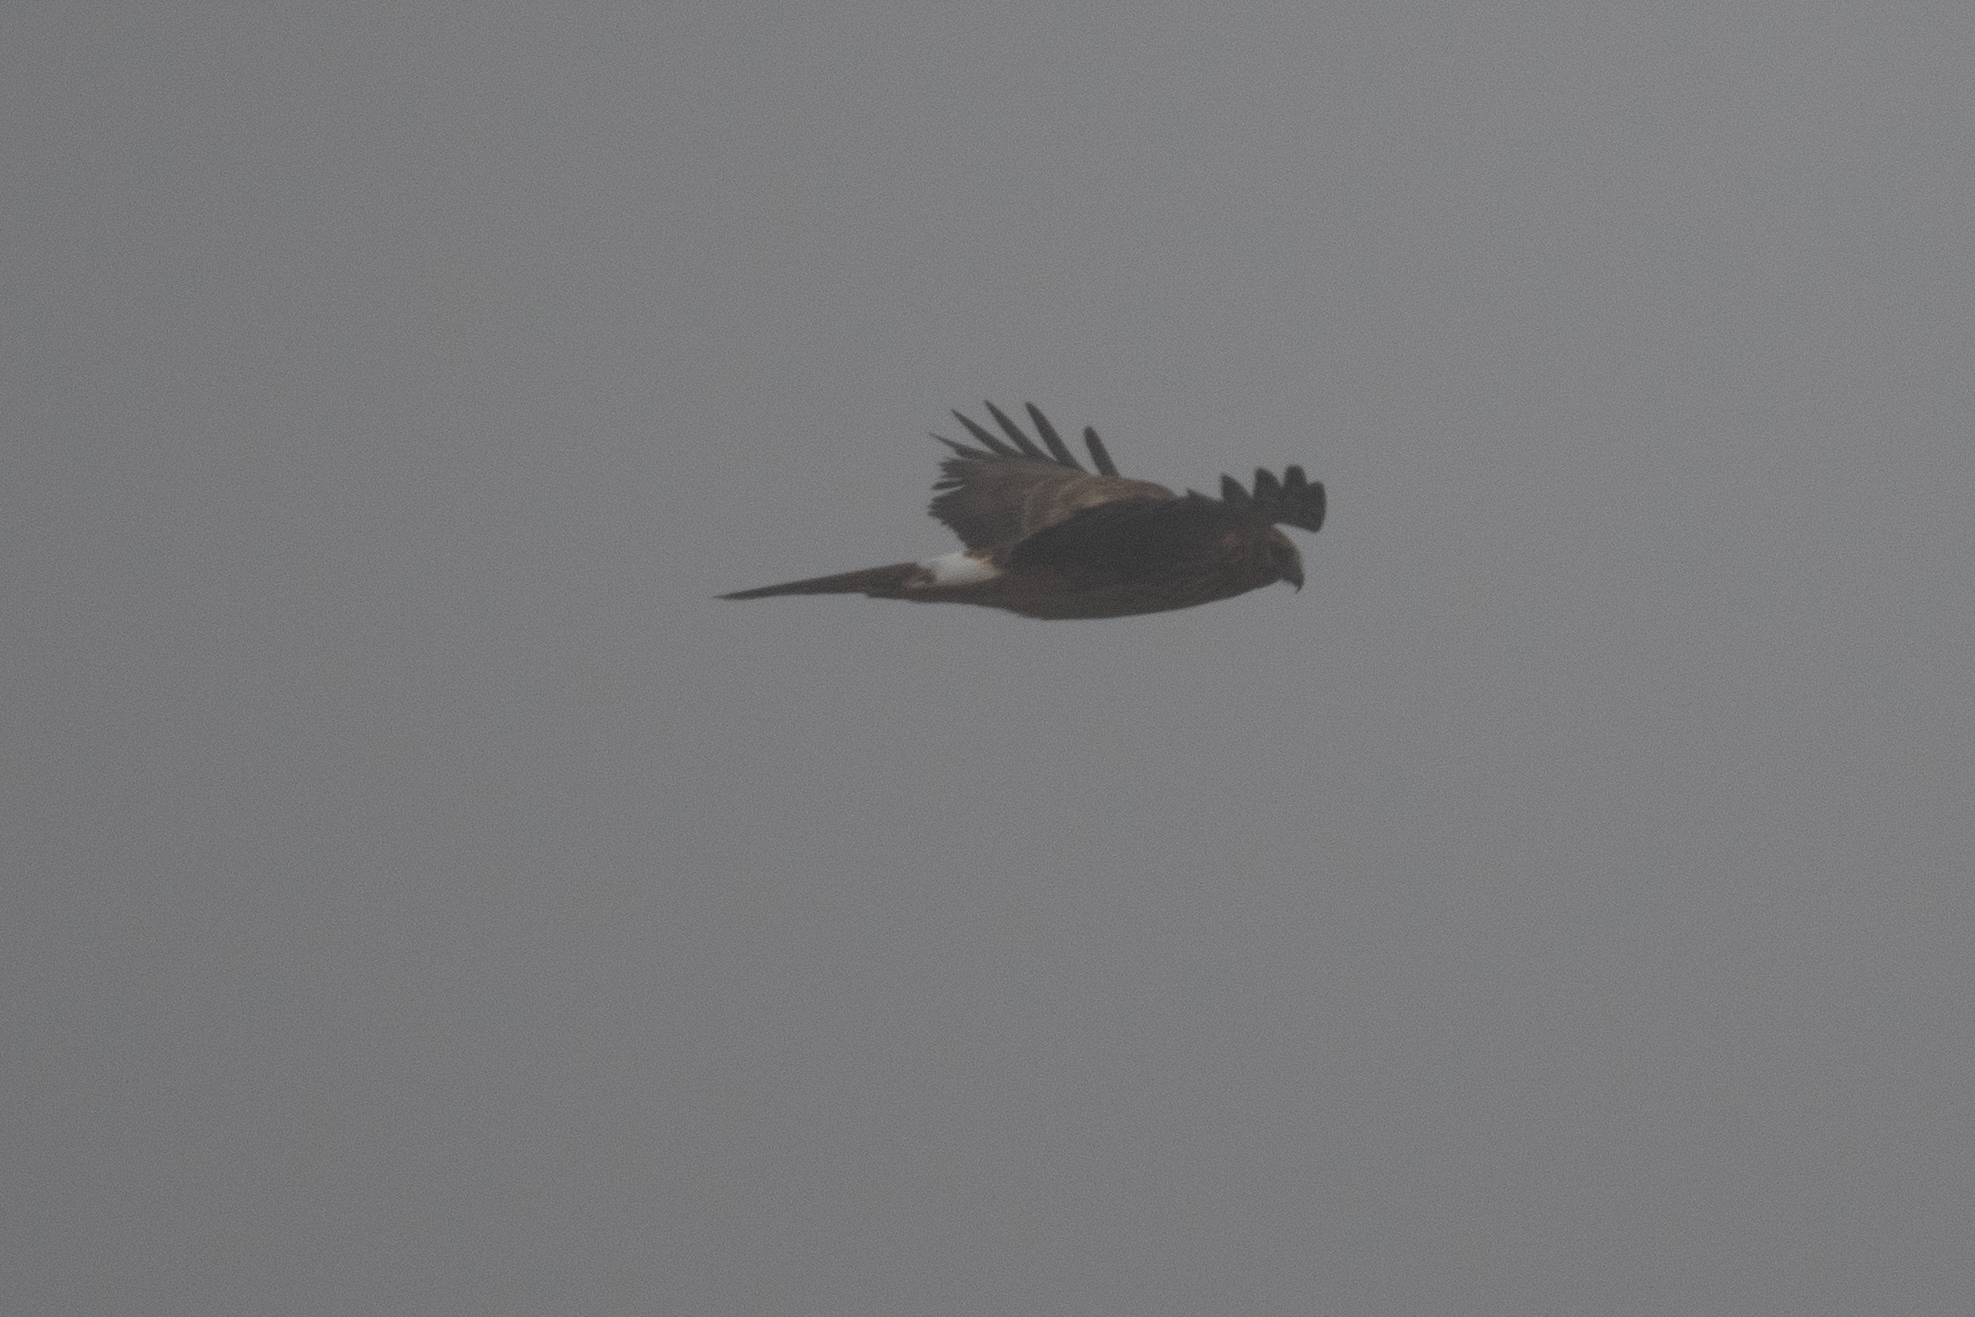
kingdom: Animalia
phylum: Chordata
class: Aves
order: Accipitriformes
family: Accipitridae
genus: Circus
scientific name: Circus cyaneus
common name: Hen harrier
